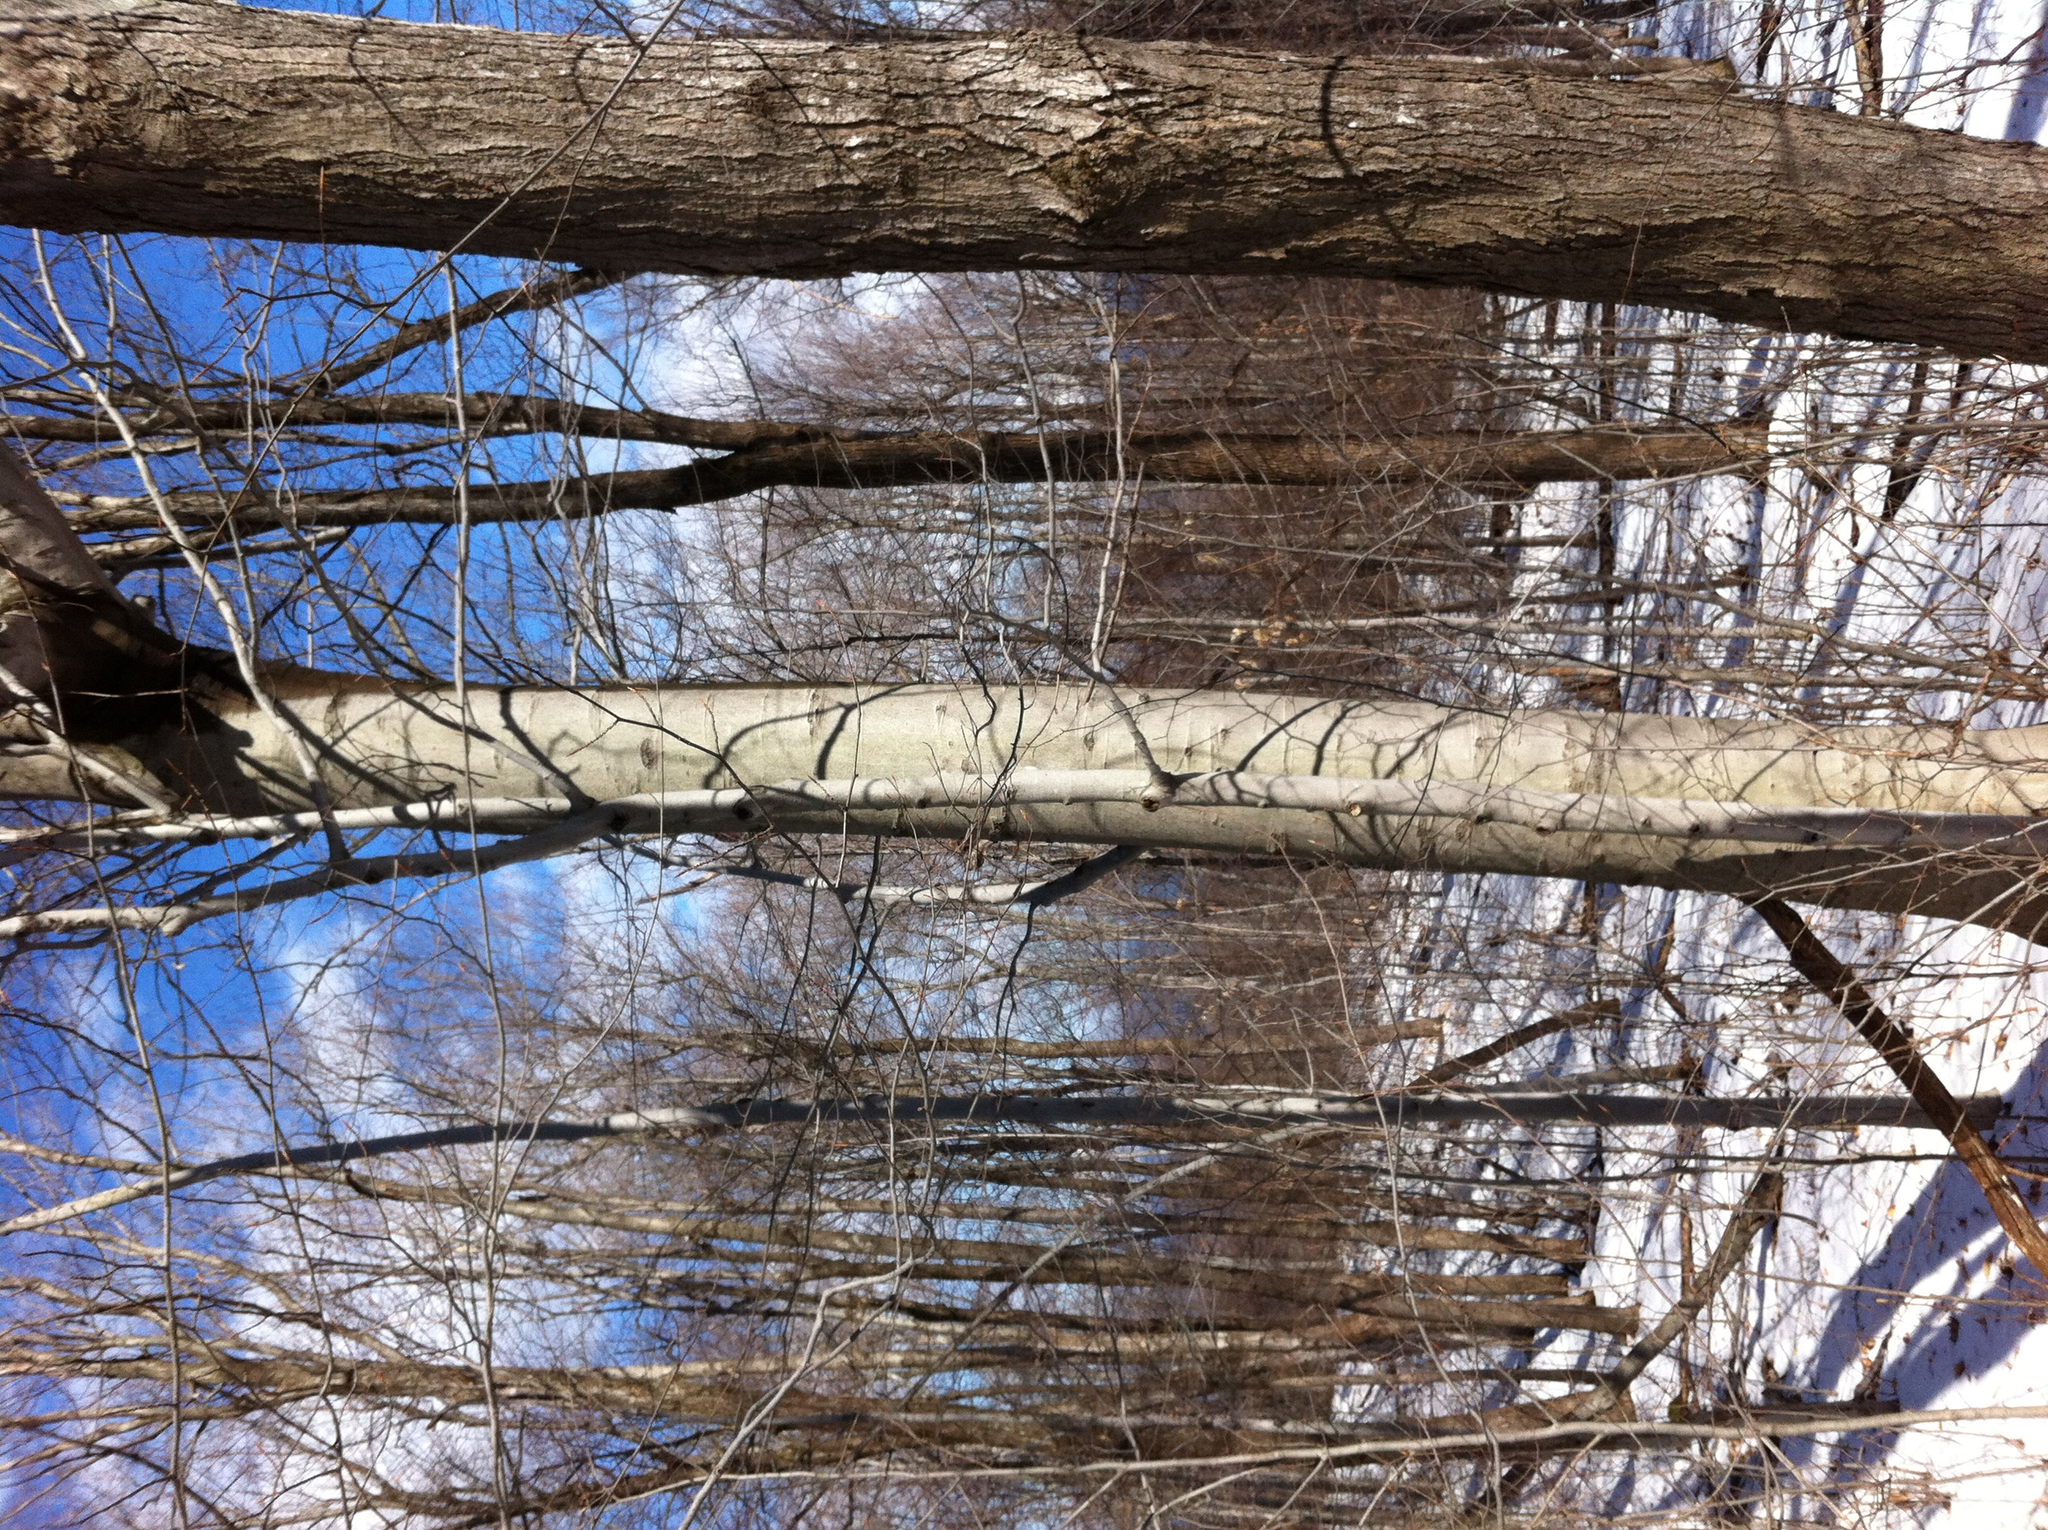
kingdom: Plantae
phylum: Tracheophyta
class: Magnoliopsida
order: Fagales
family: Fagaceae
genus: Fagus
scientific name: Fagus grandifolia
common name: American beech
